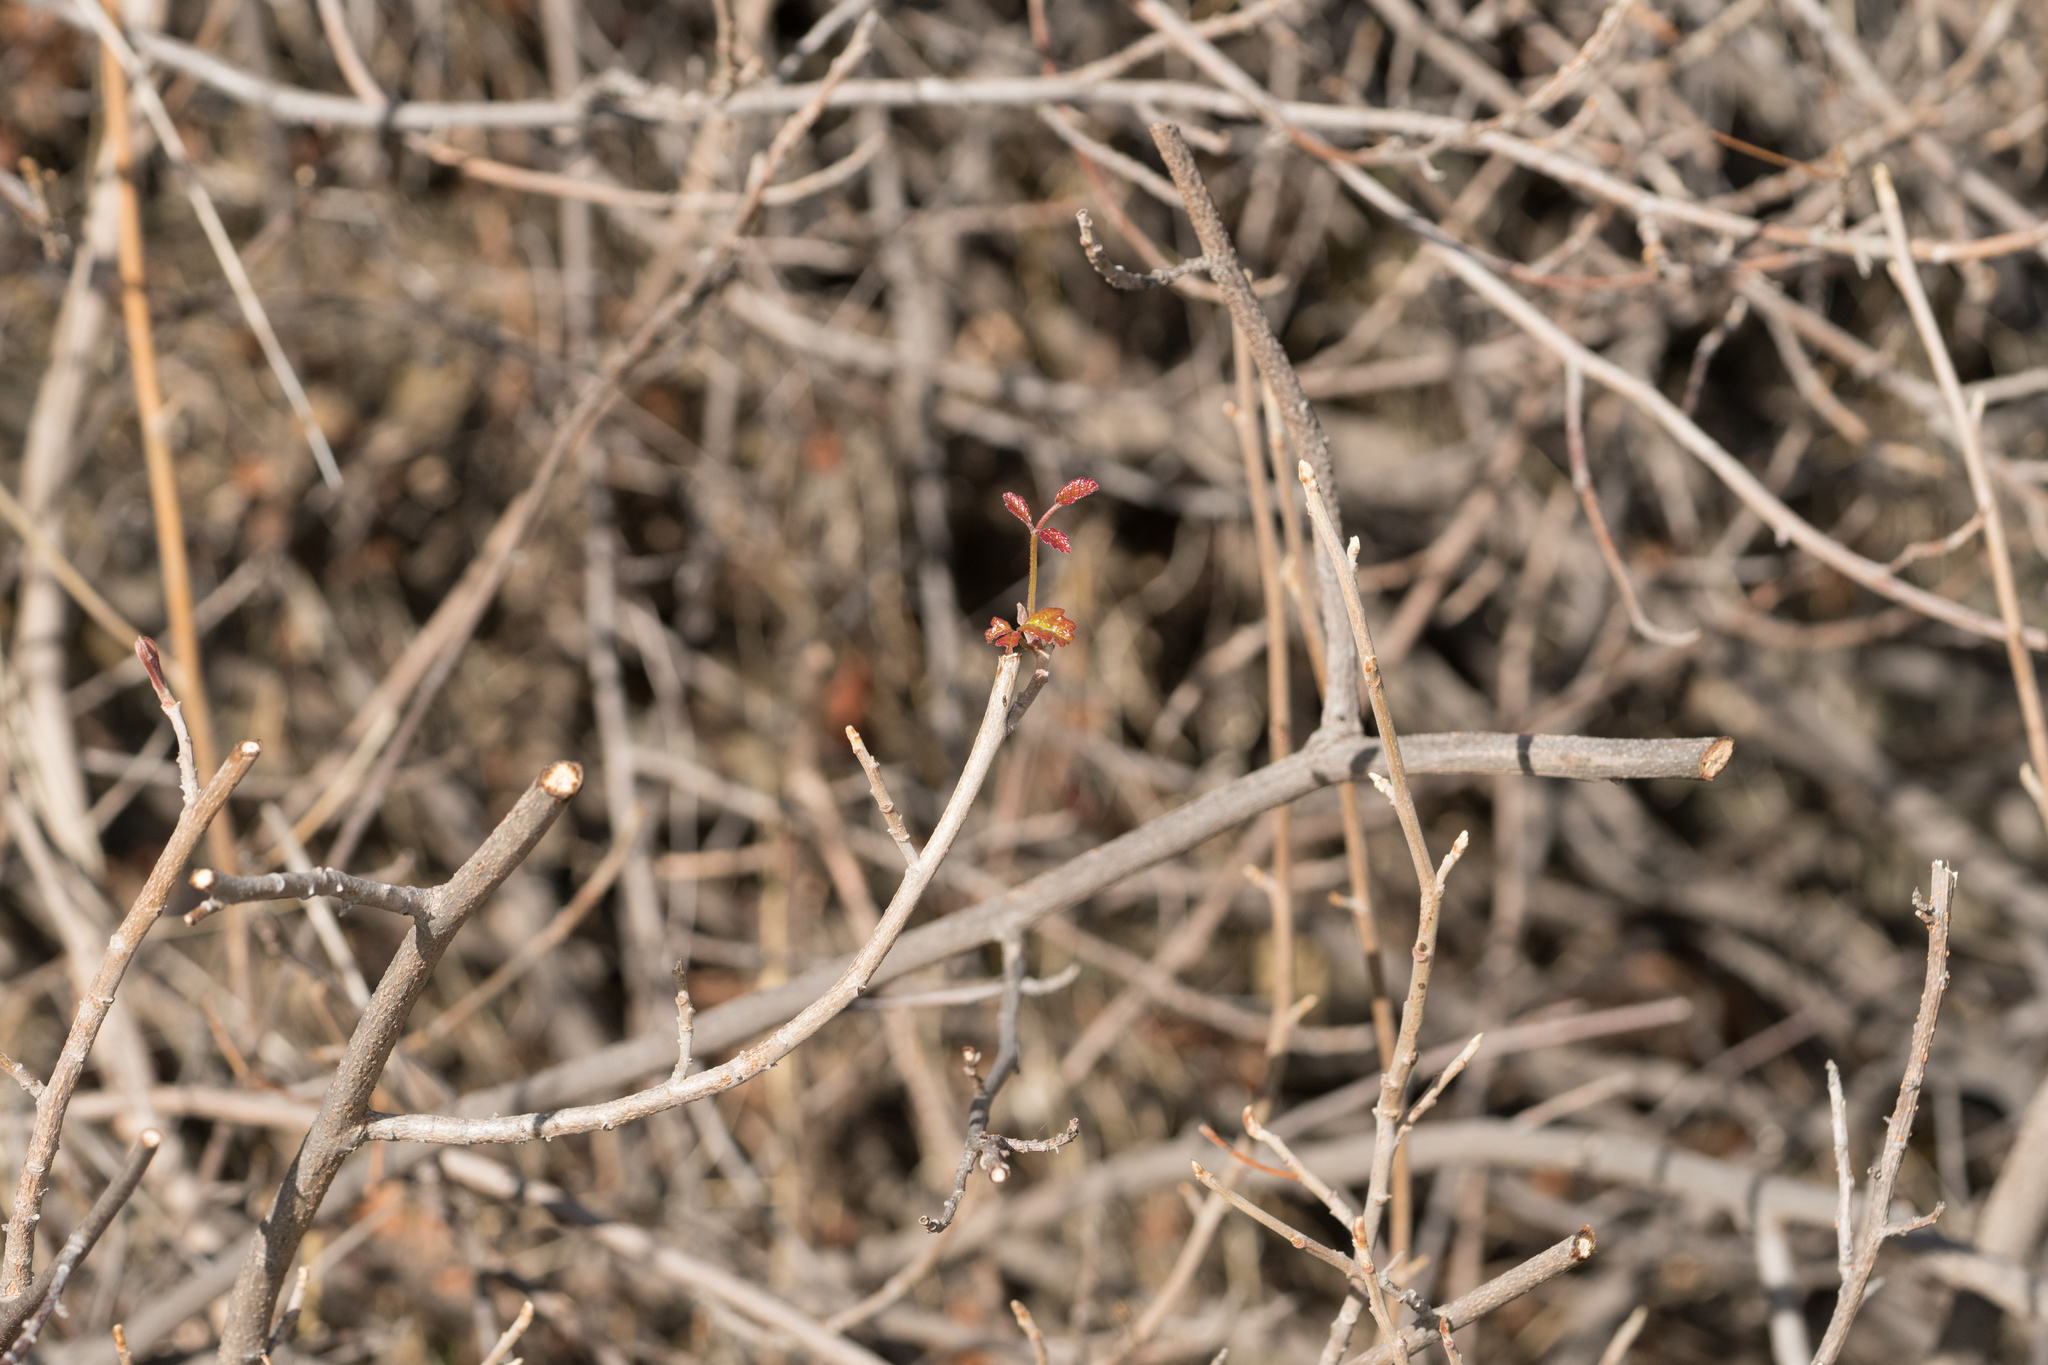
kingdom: Plantae
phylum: Tracheophyta
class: Magnoliopsida
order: Sapindales
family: Anacardiaceae
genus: Toxicodendron
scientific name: Toxicodendron diversilobum
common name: Pacific poison-oak
